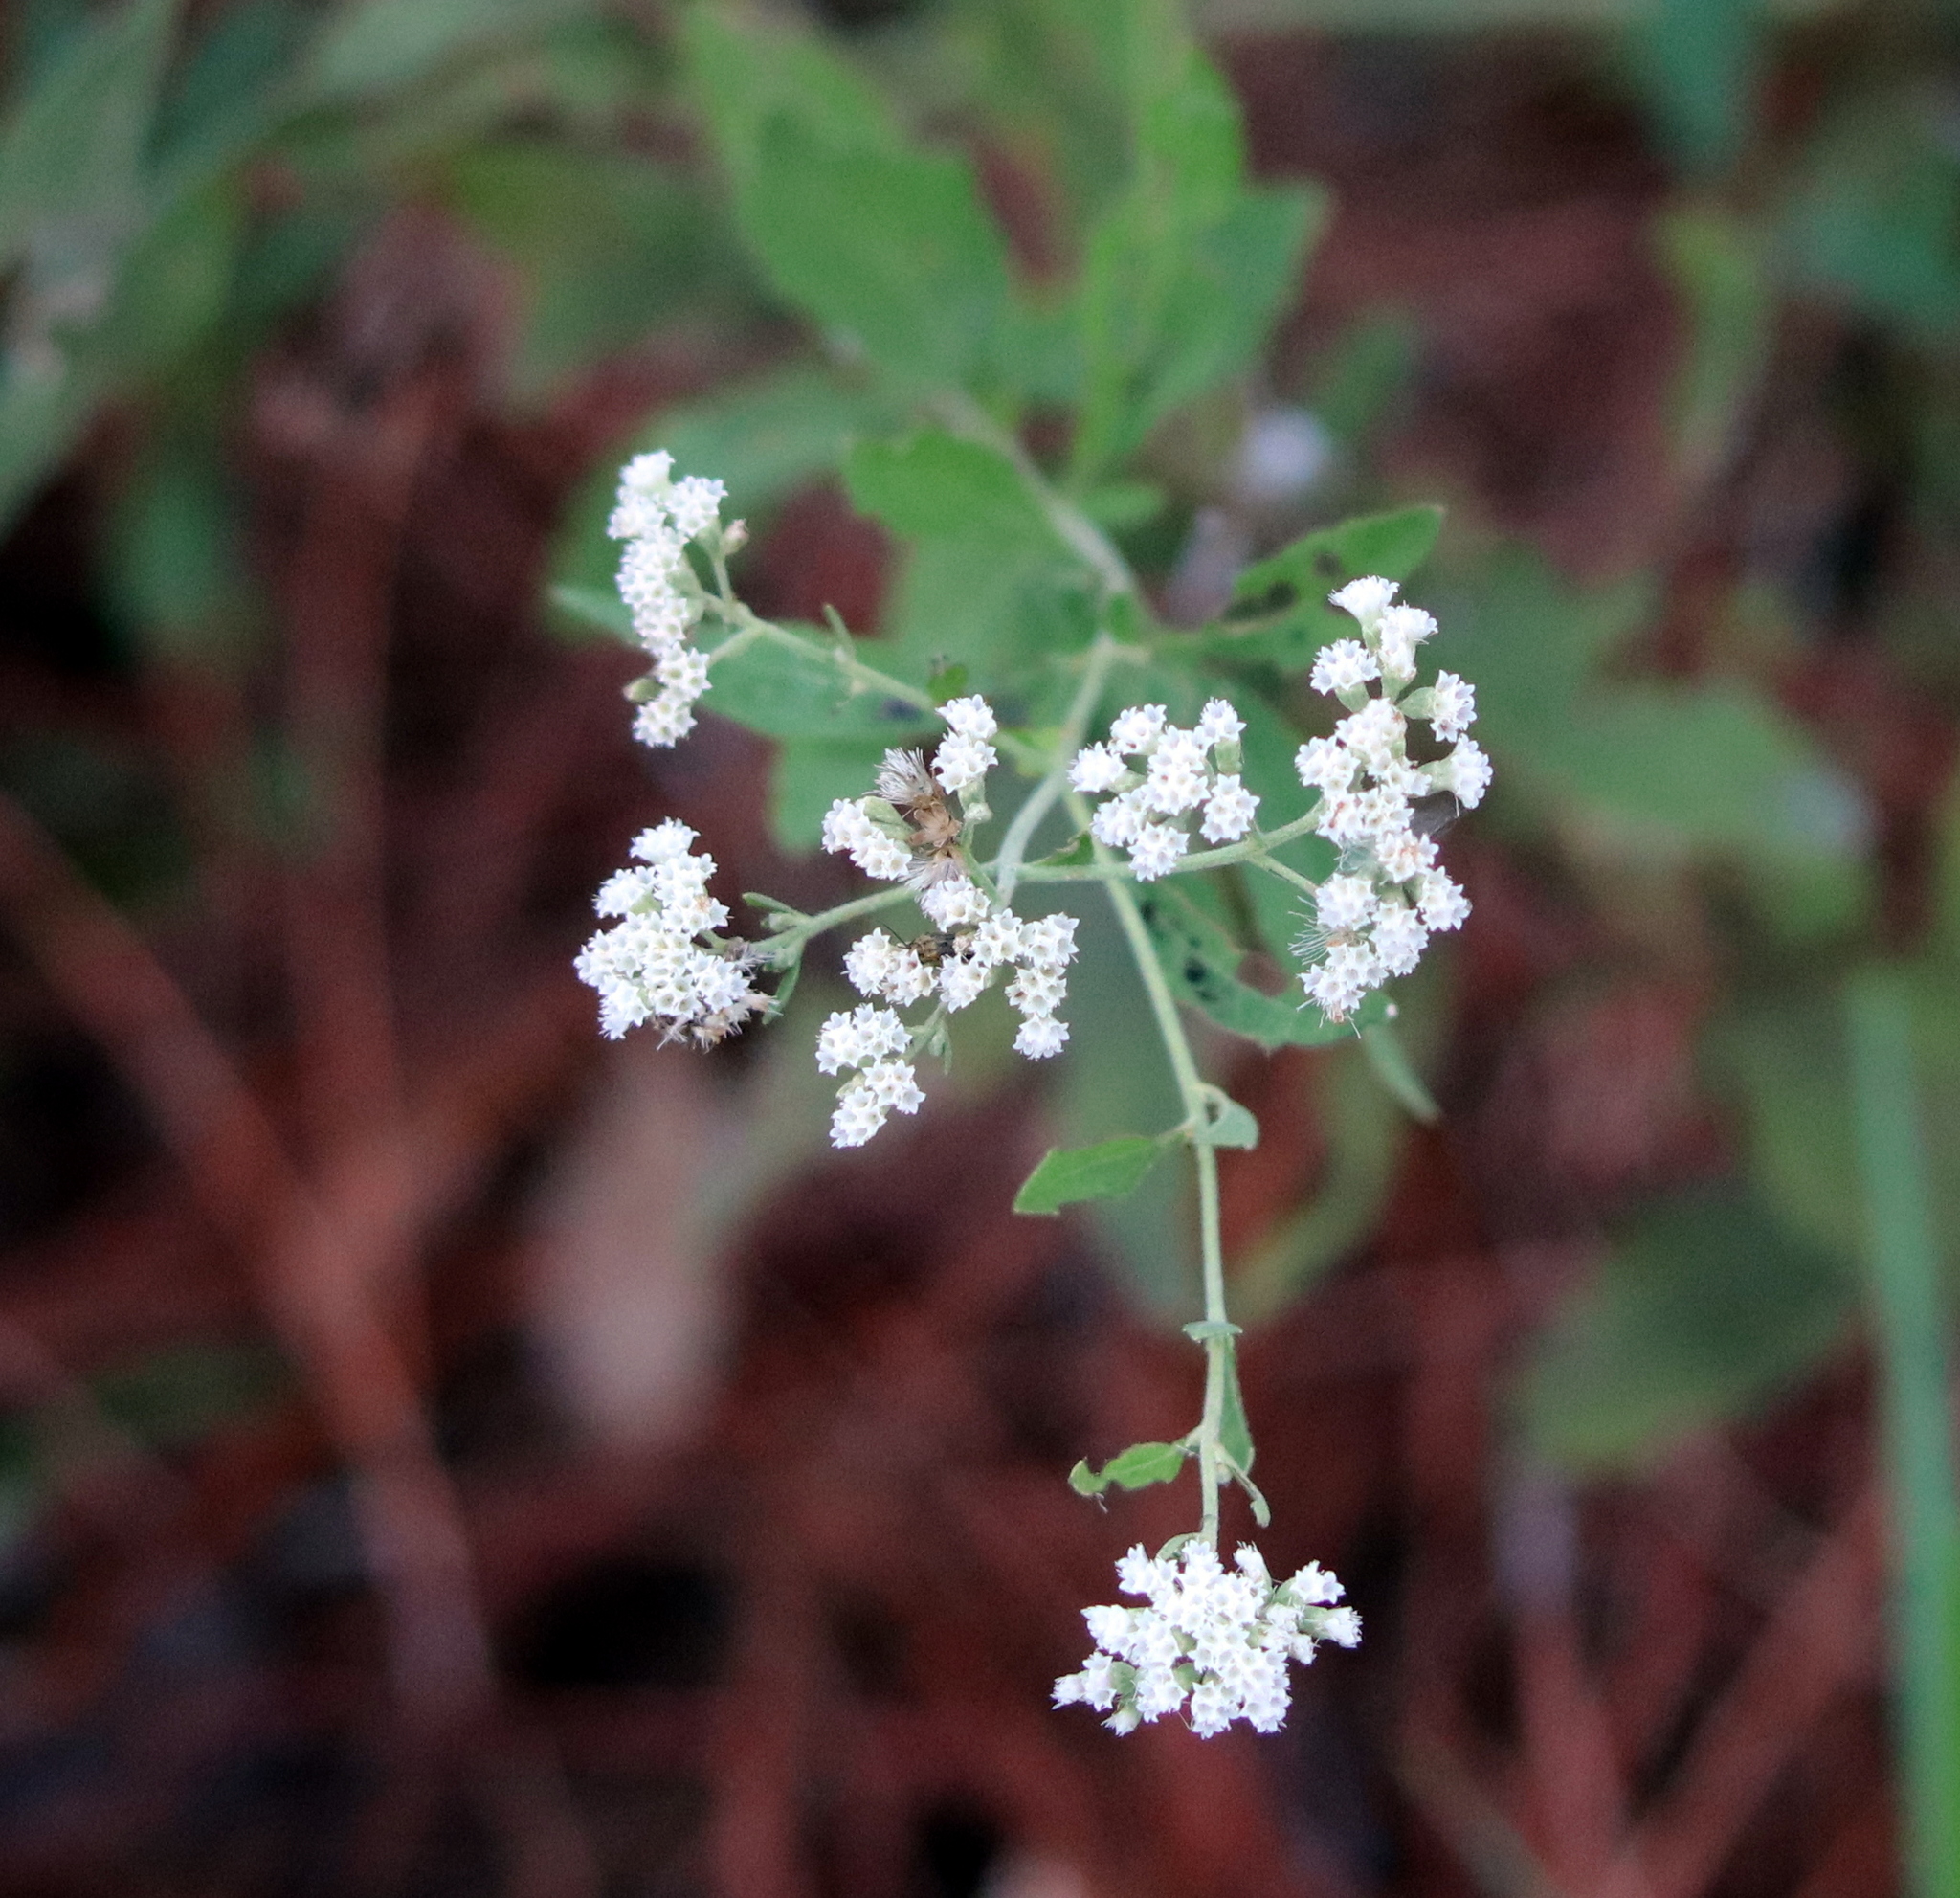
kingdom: Plantae
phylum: Tracheophyta
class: Magnoliopsida
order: Asterales
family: Asteraceae
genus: Eupatorium
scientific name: Eupatorium semiserratum
